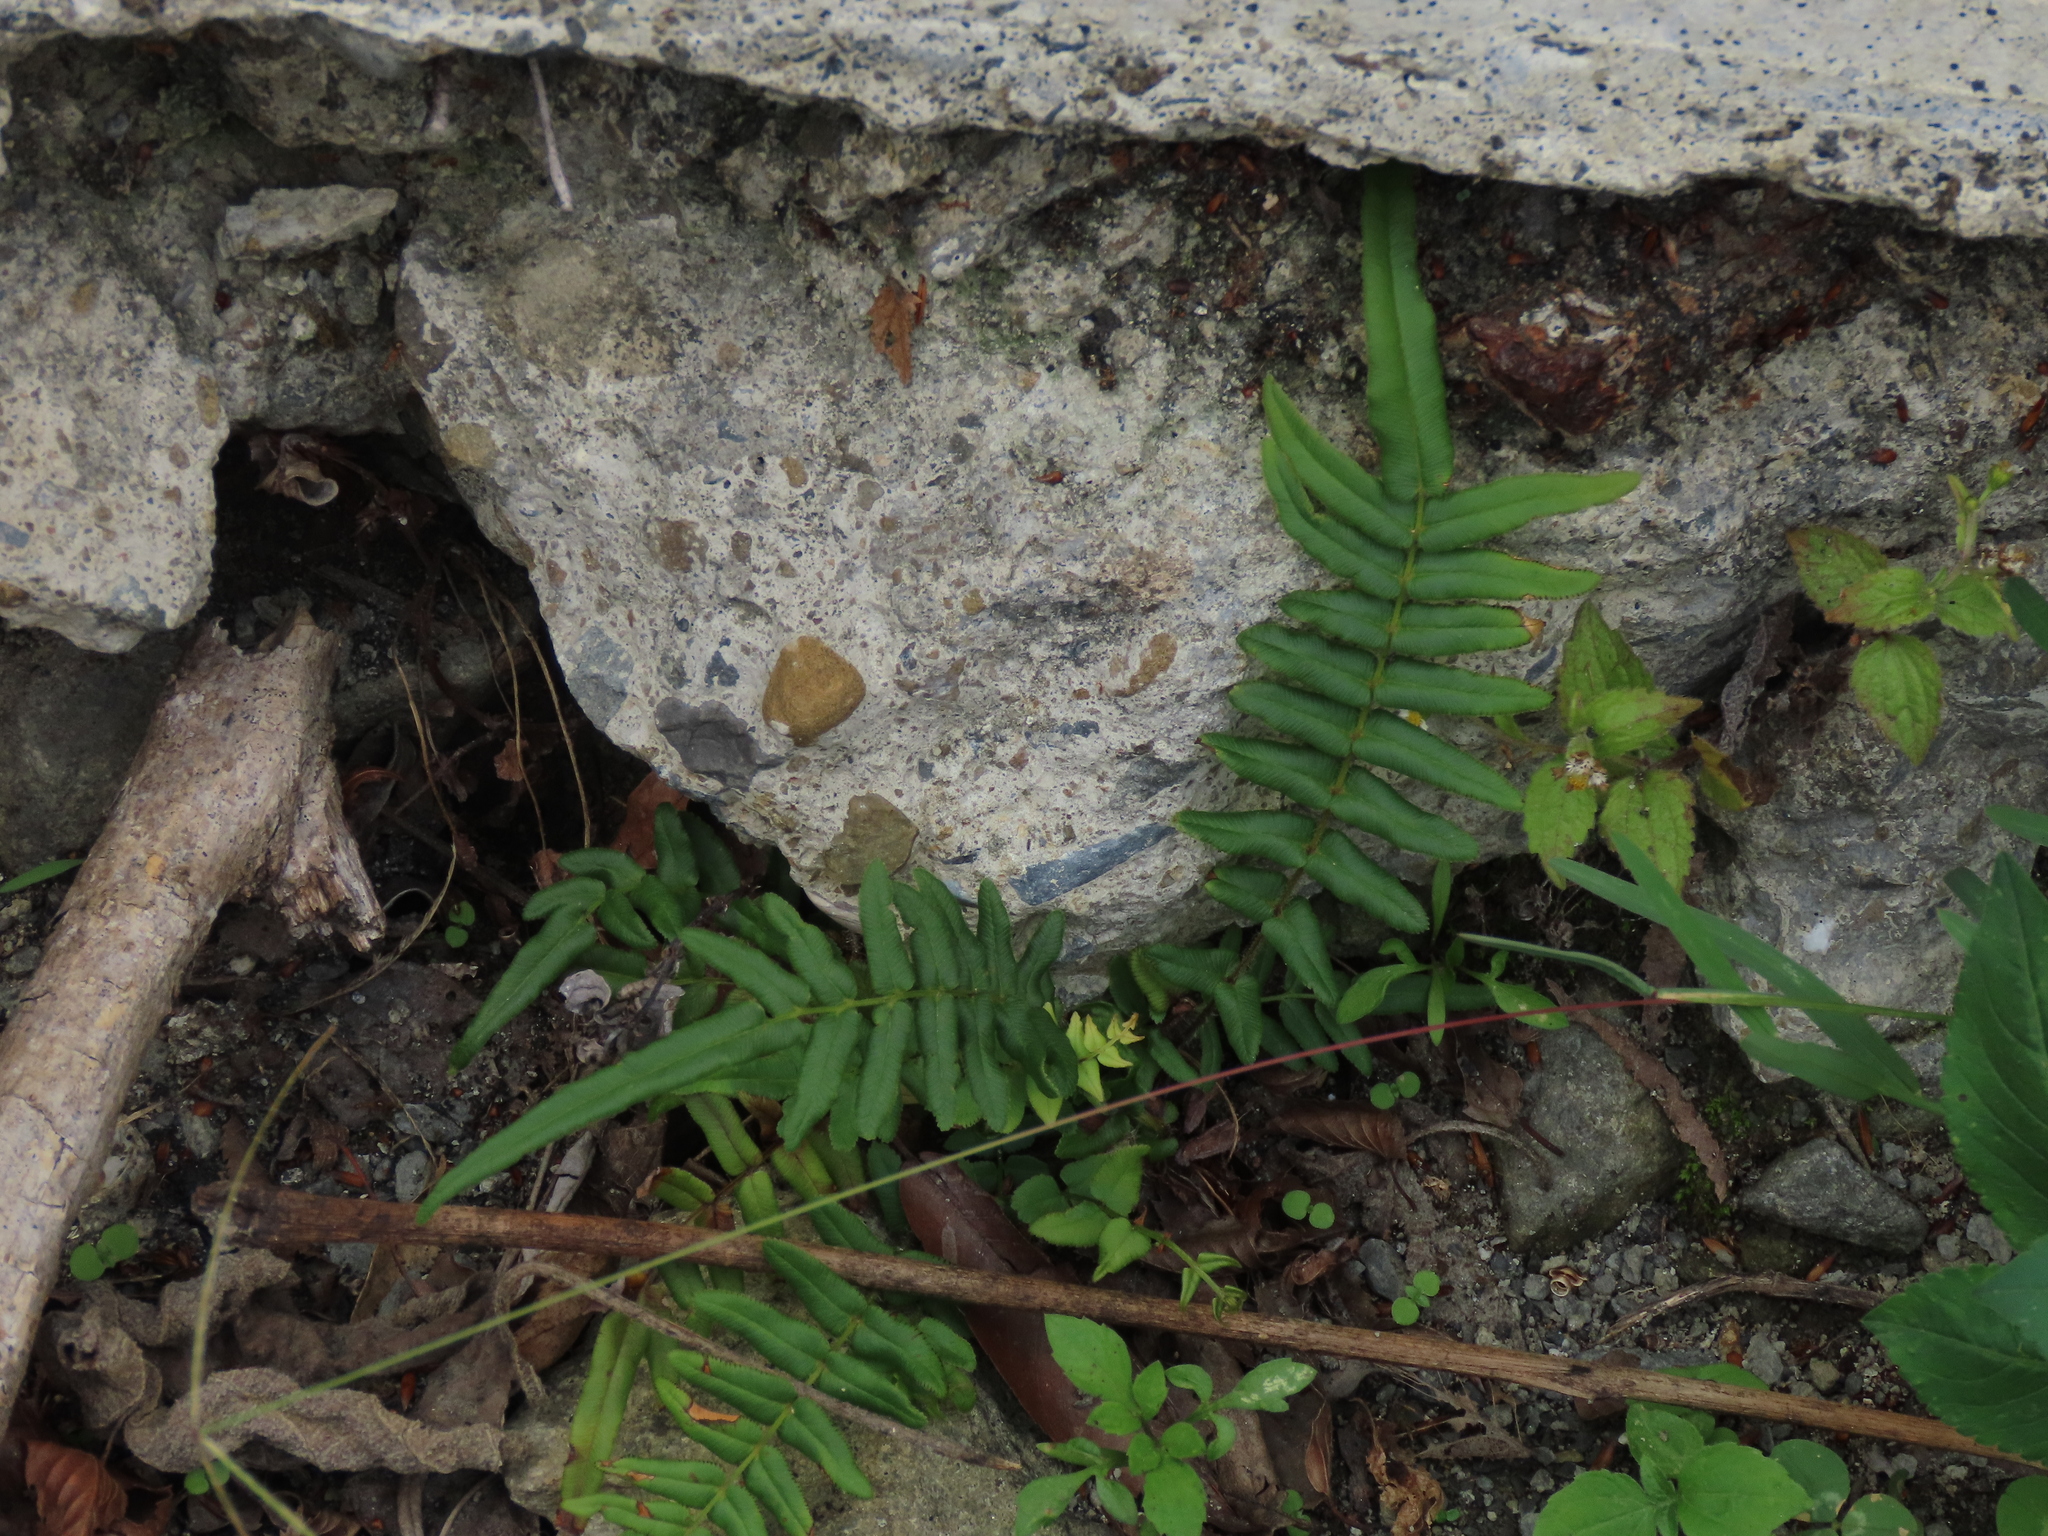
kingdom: Plantae
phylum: Tracheophyta
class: Polypodiopsida
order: Polypodiales
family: Pteridaceae
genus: Pteris
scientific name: Pteris vittata
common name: Ladder brake
